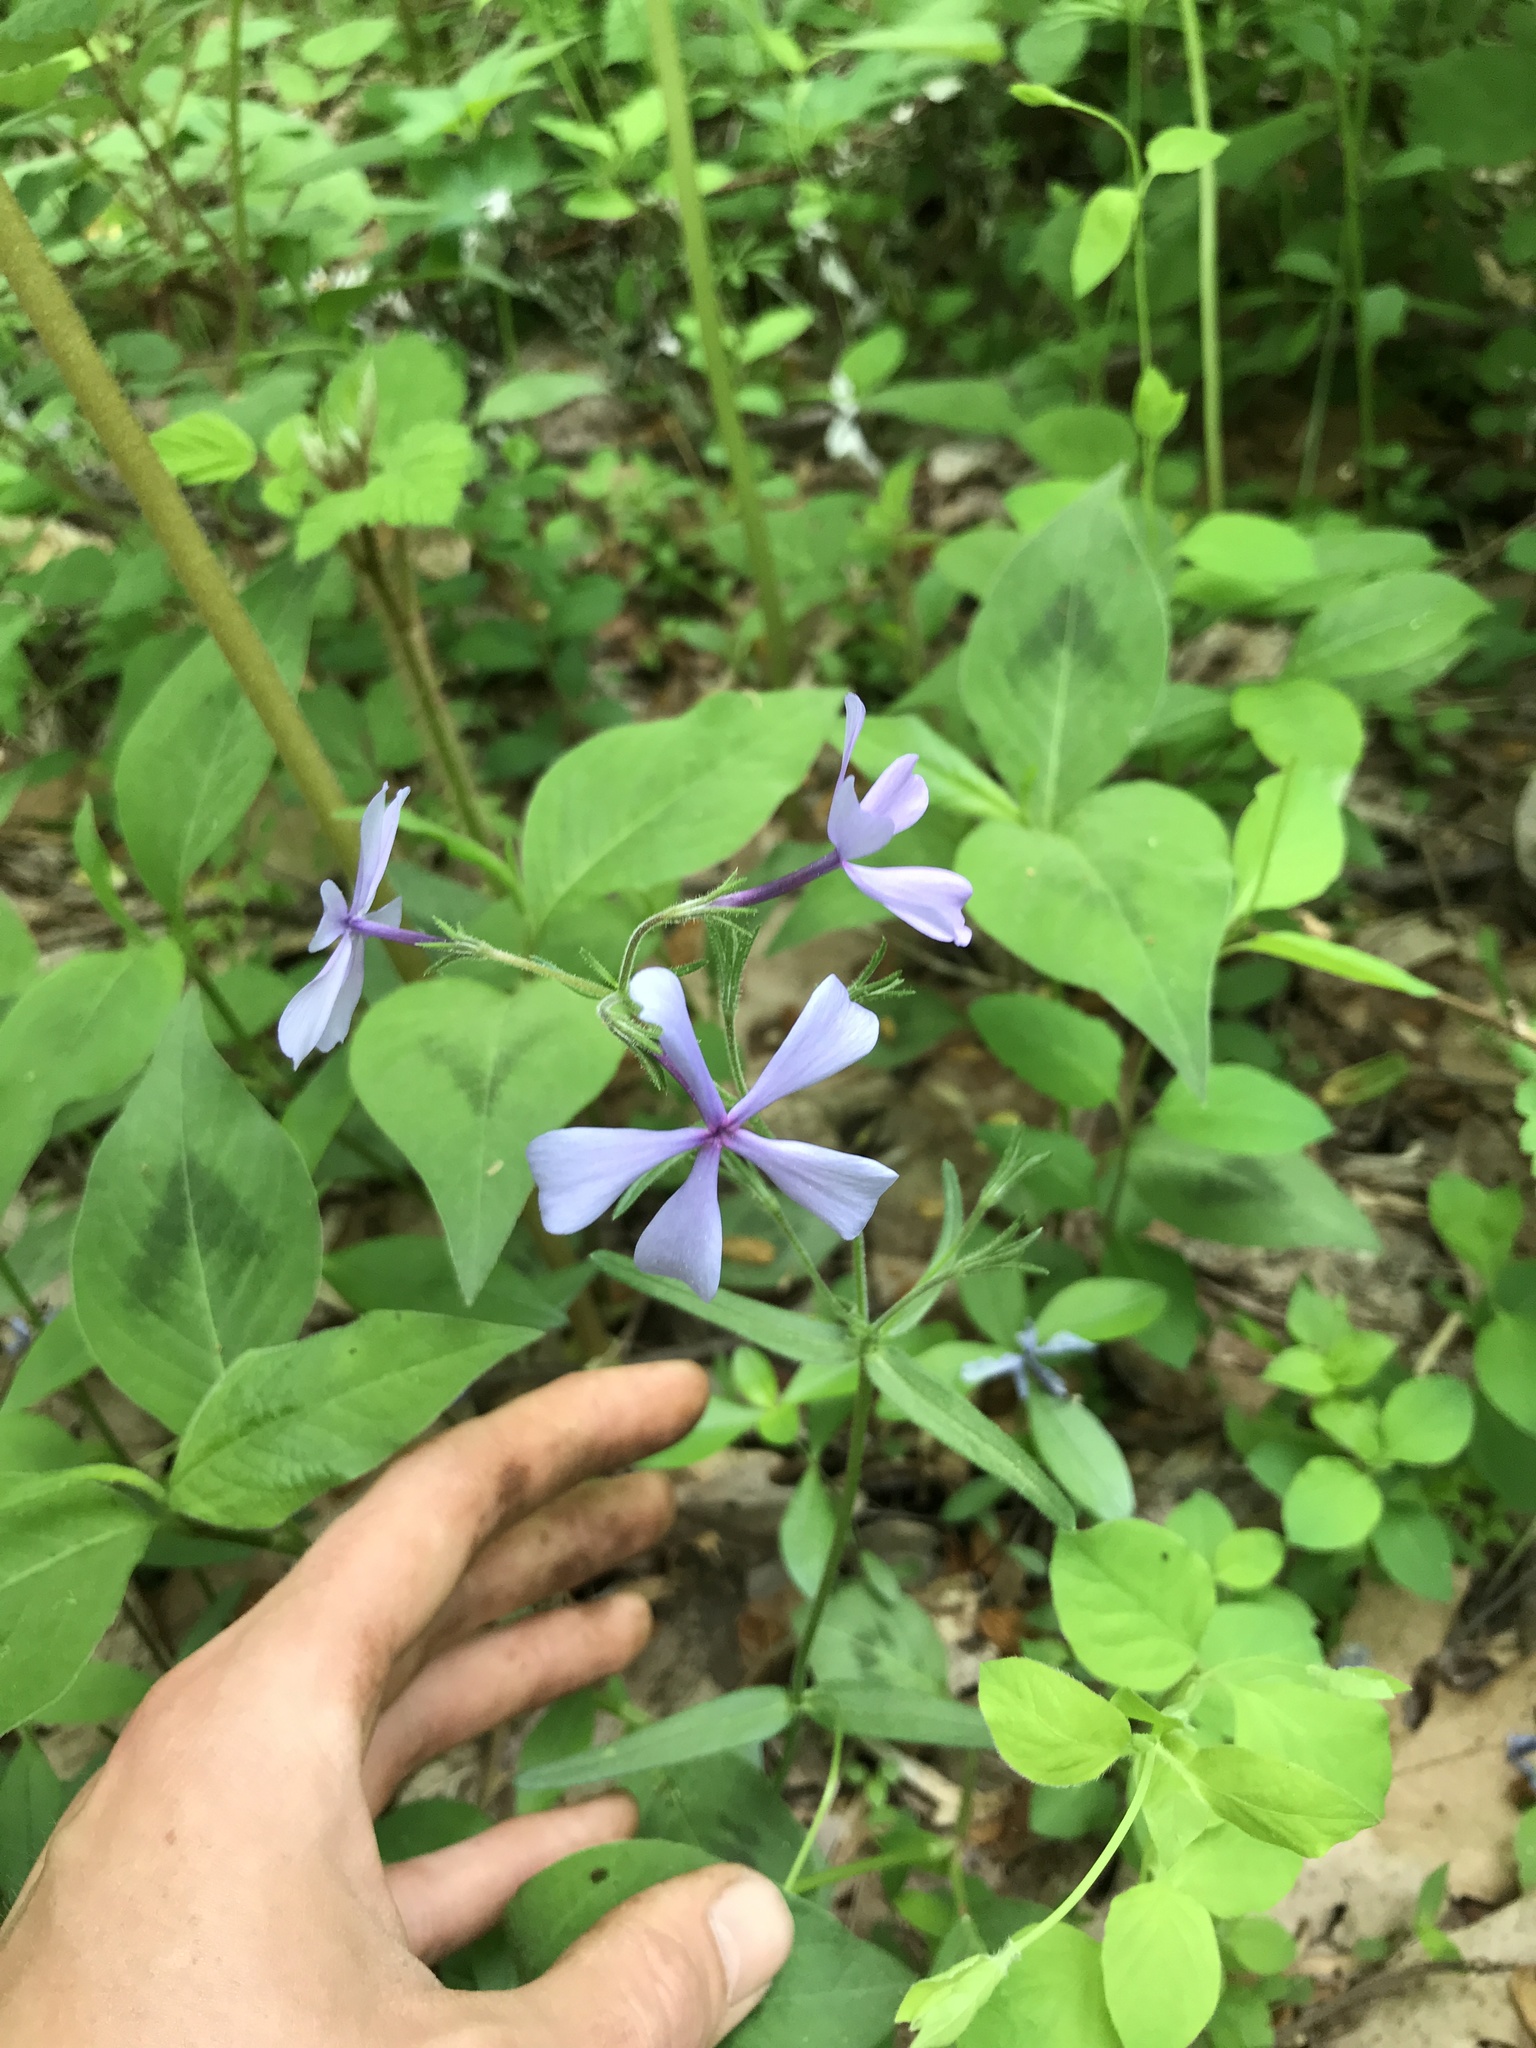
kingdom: Plantae
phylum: Tracheophyta
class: Magnoliopsida
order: Ericales
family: Polemoniaceae
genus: Phlox
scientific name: Phlox divaricata
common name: Blue phlox
